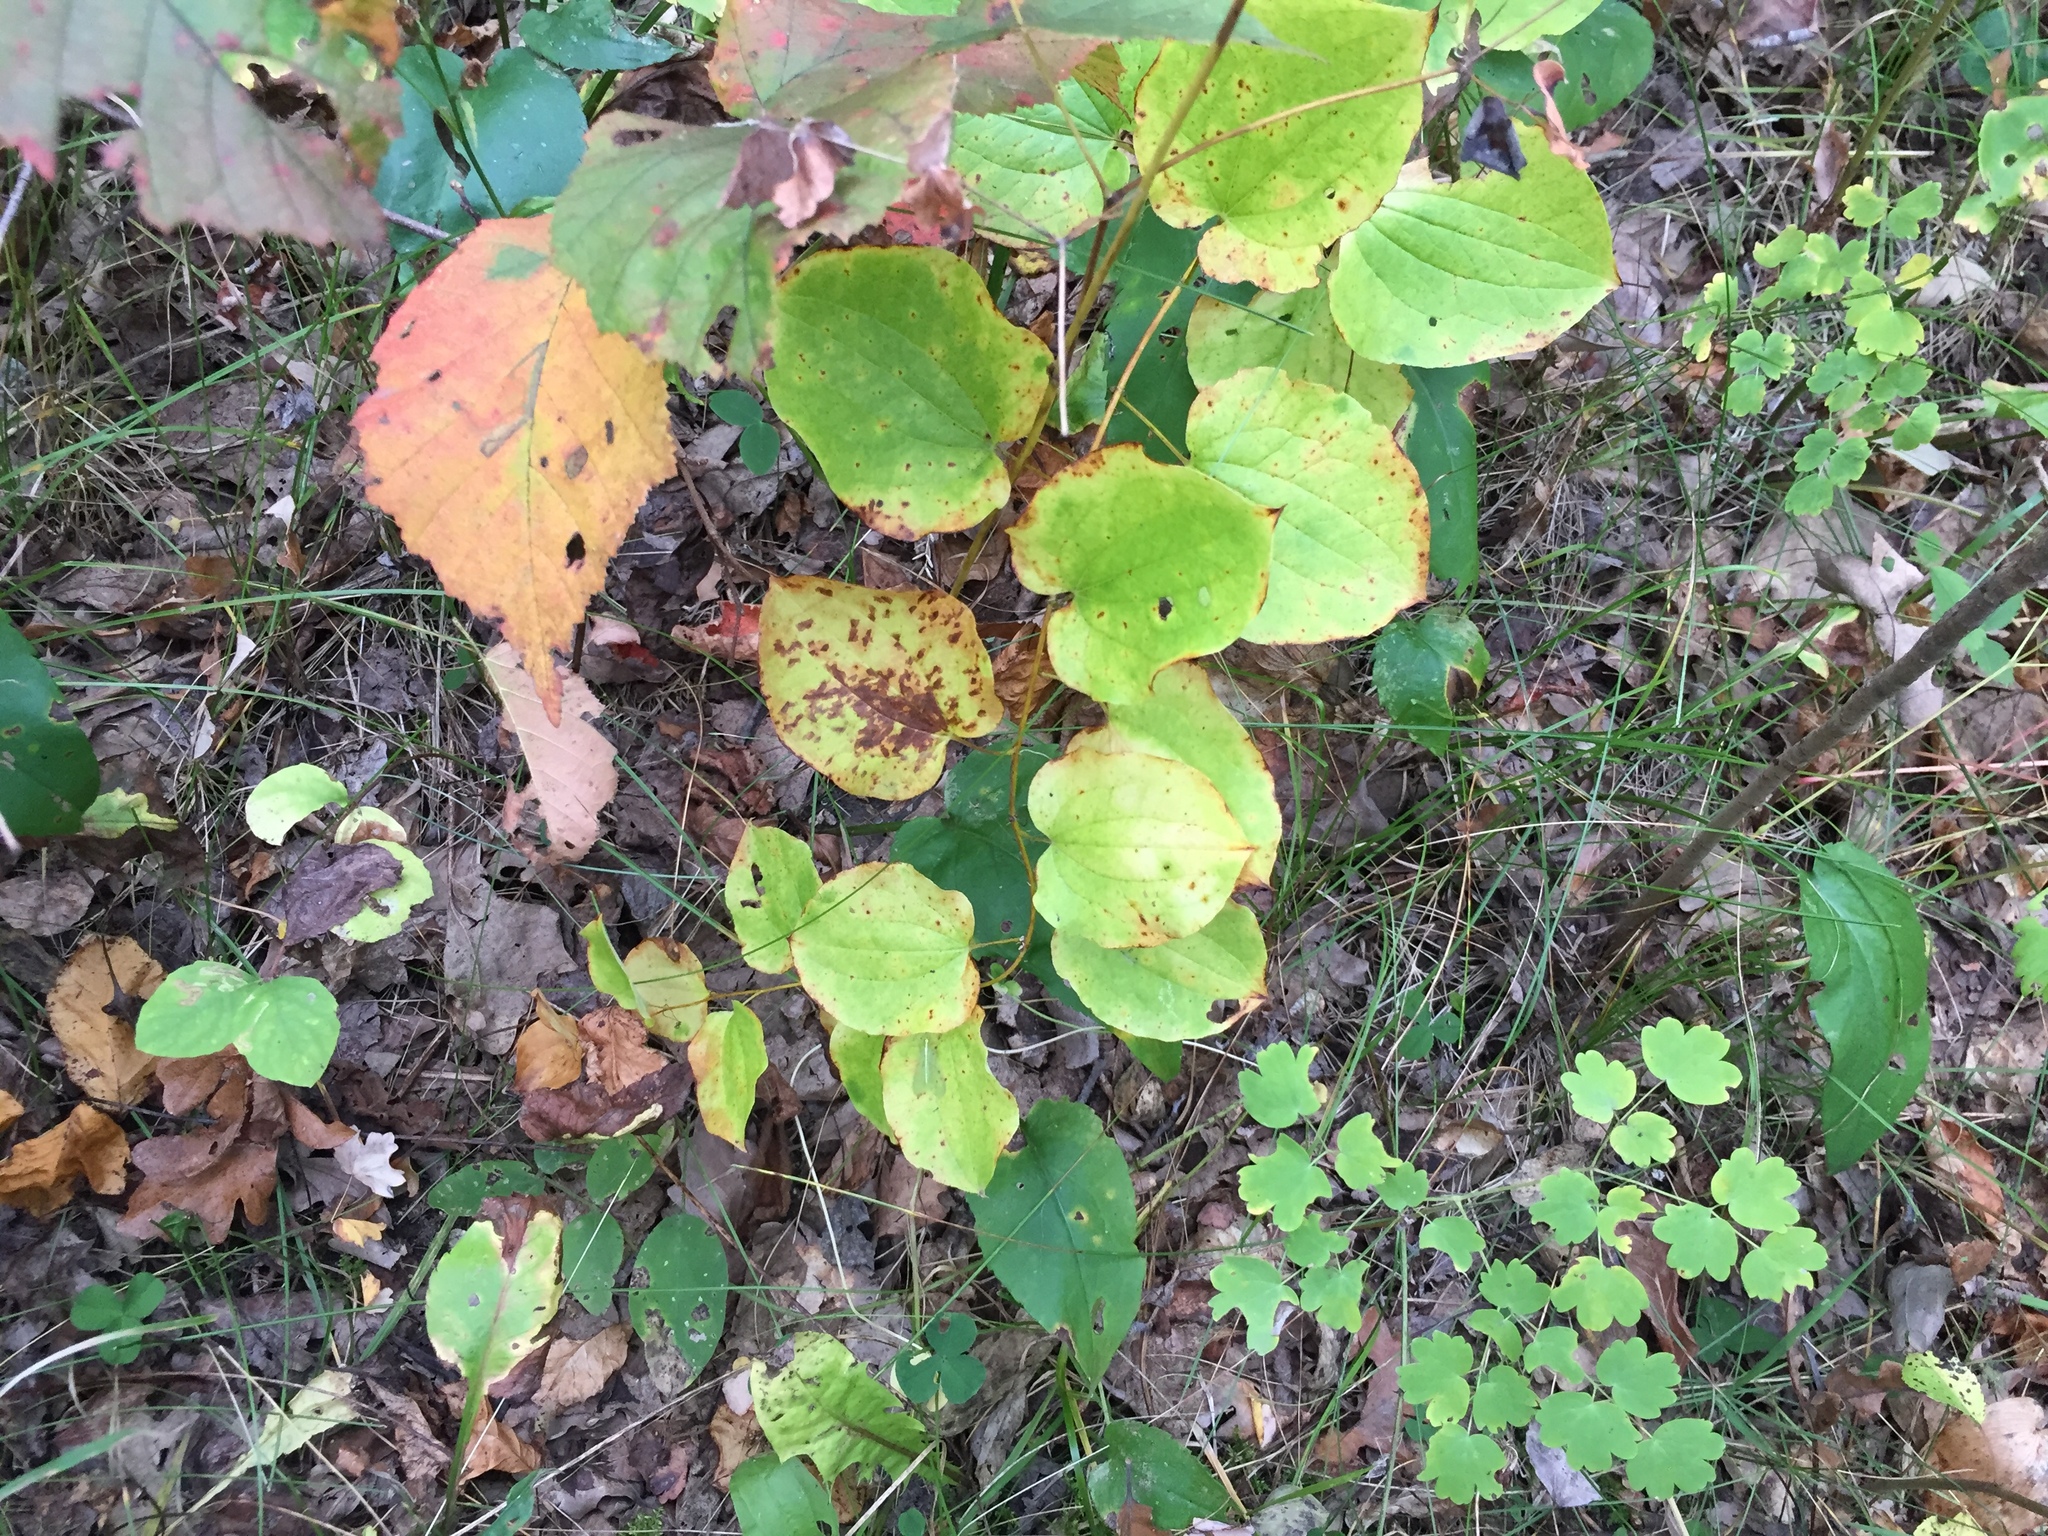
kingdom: Plantae
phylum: Tracheophyta
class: Liliopsida
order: Liliales
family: Smilacaceae
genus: Smilax
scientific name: Smilax lasioneura
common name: Blue ridge carrionflower
